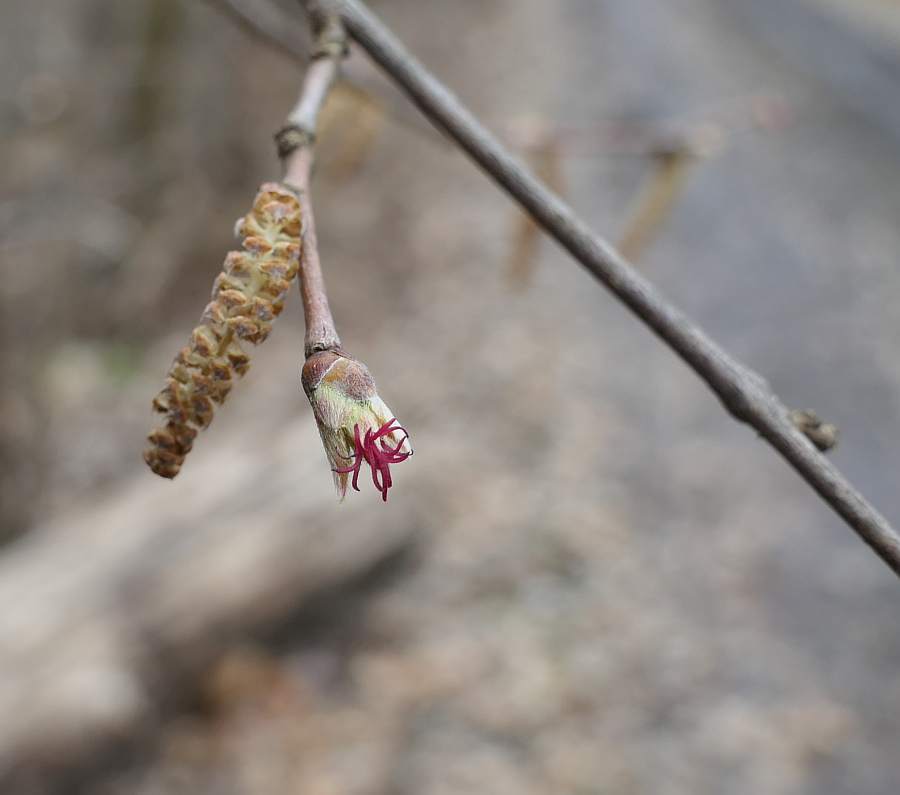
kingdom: Plantae
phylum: Tracheophyta
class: Magnoliopsida
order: Fagales
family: Betulaceae
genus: Corylus
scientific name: Corylus cornuta
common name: Beaked hazel
